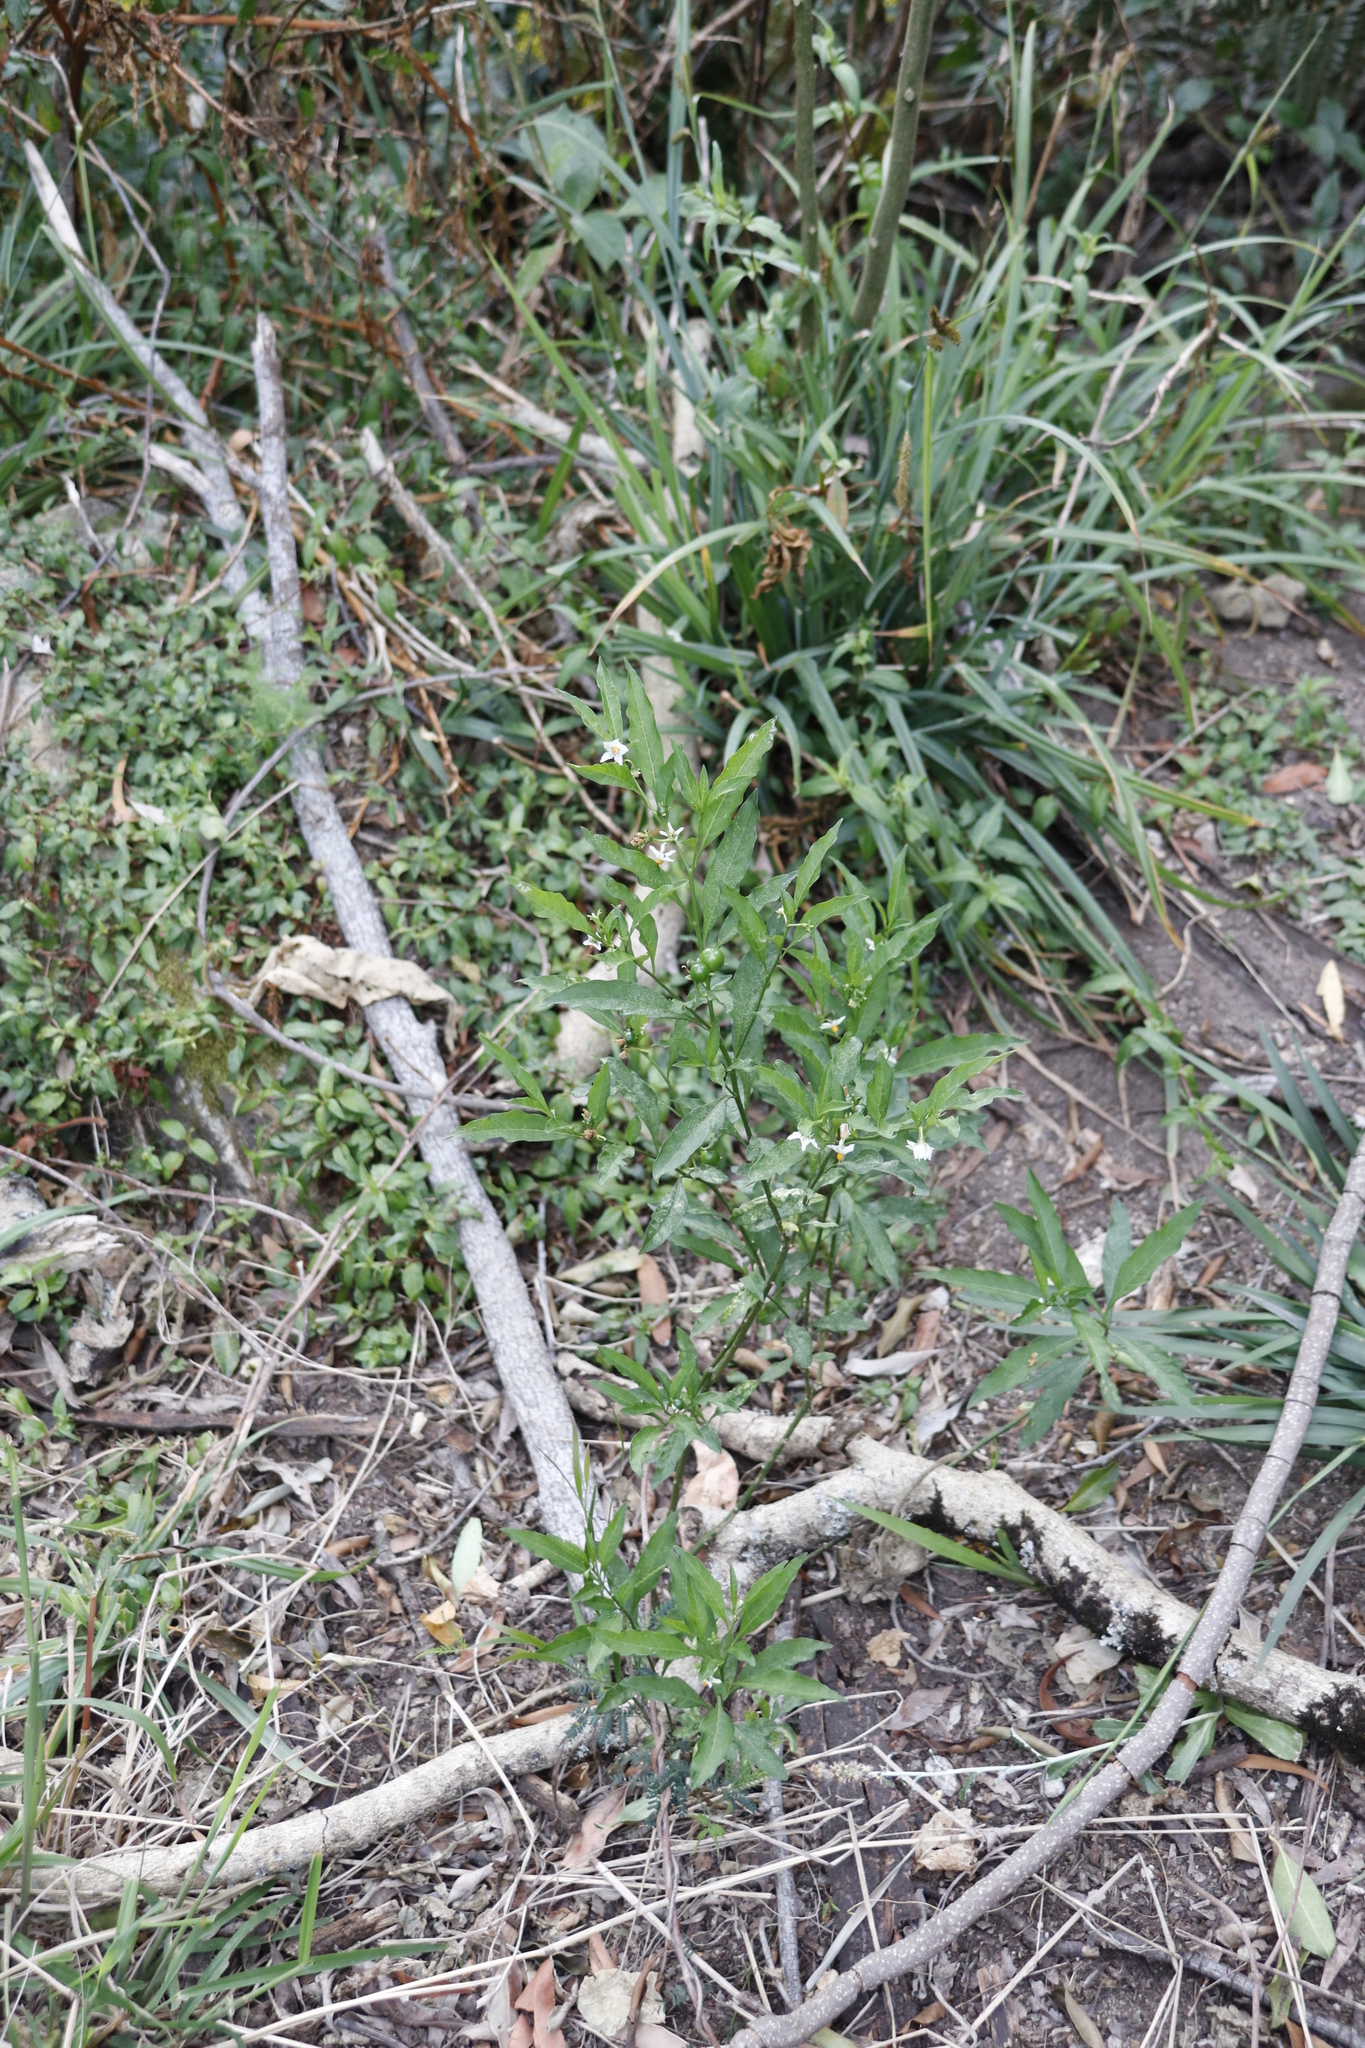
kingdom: Plantae
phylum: Tracheophyta
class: Magnoliopsida
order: Solanales
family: Solanaceae
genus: Solanum
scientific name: Solanum pseudocapsicum
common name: Jerusalem cherry
